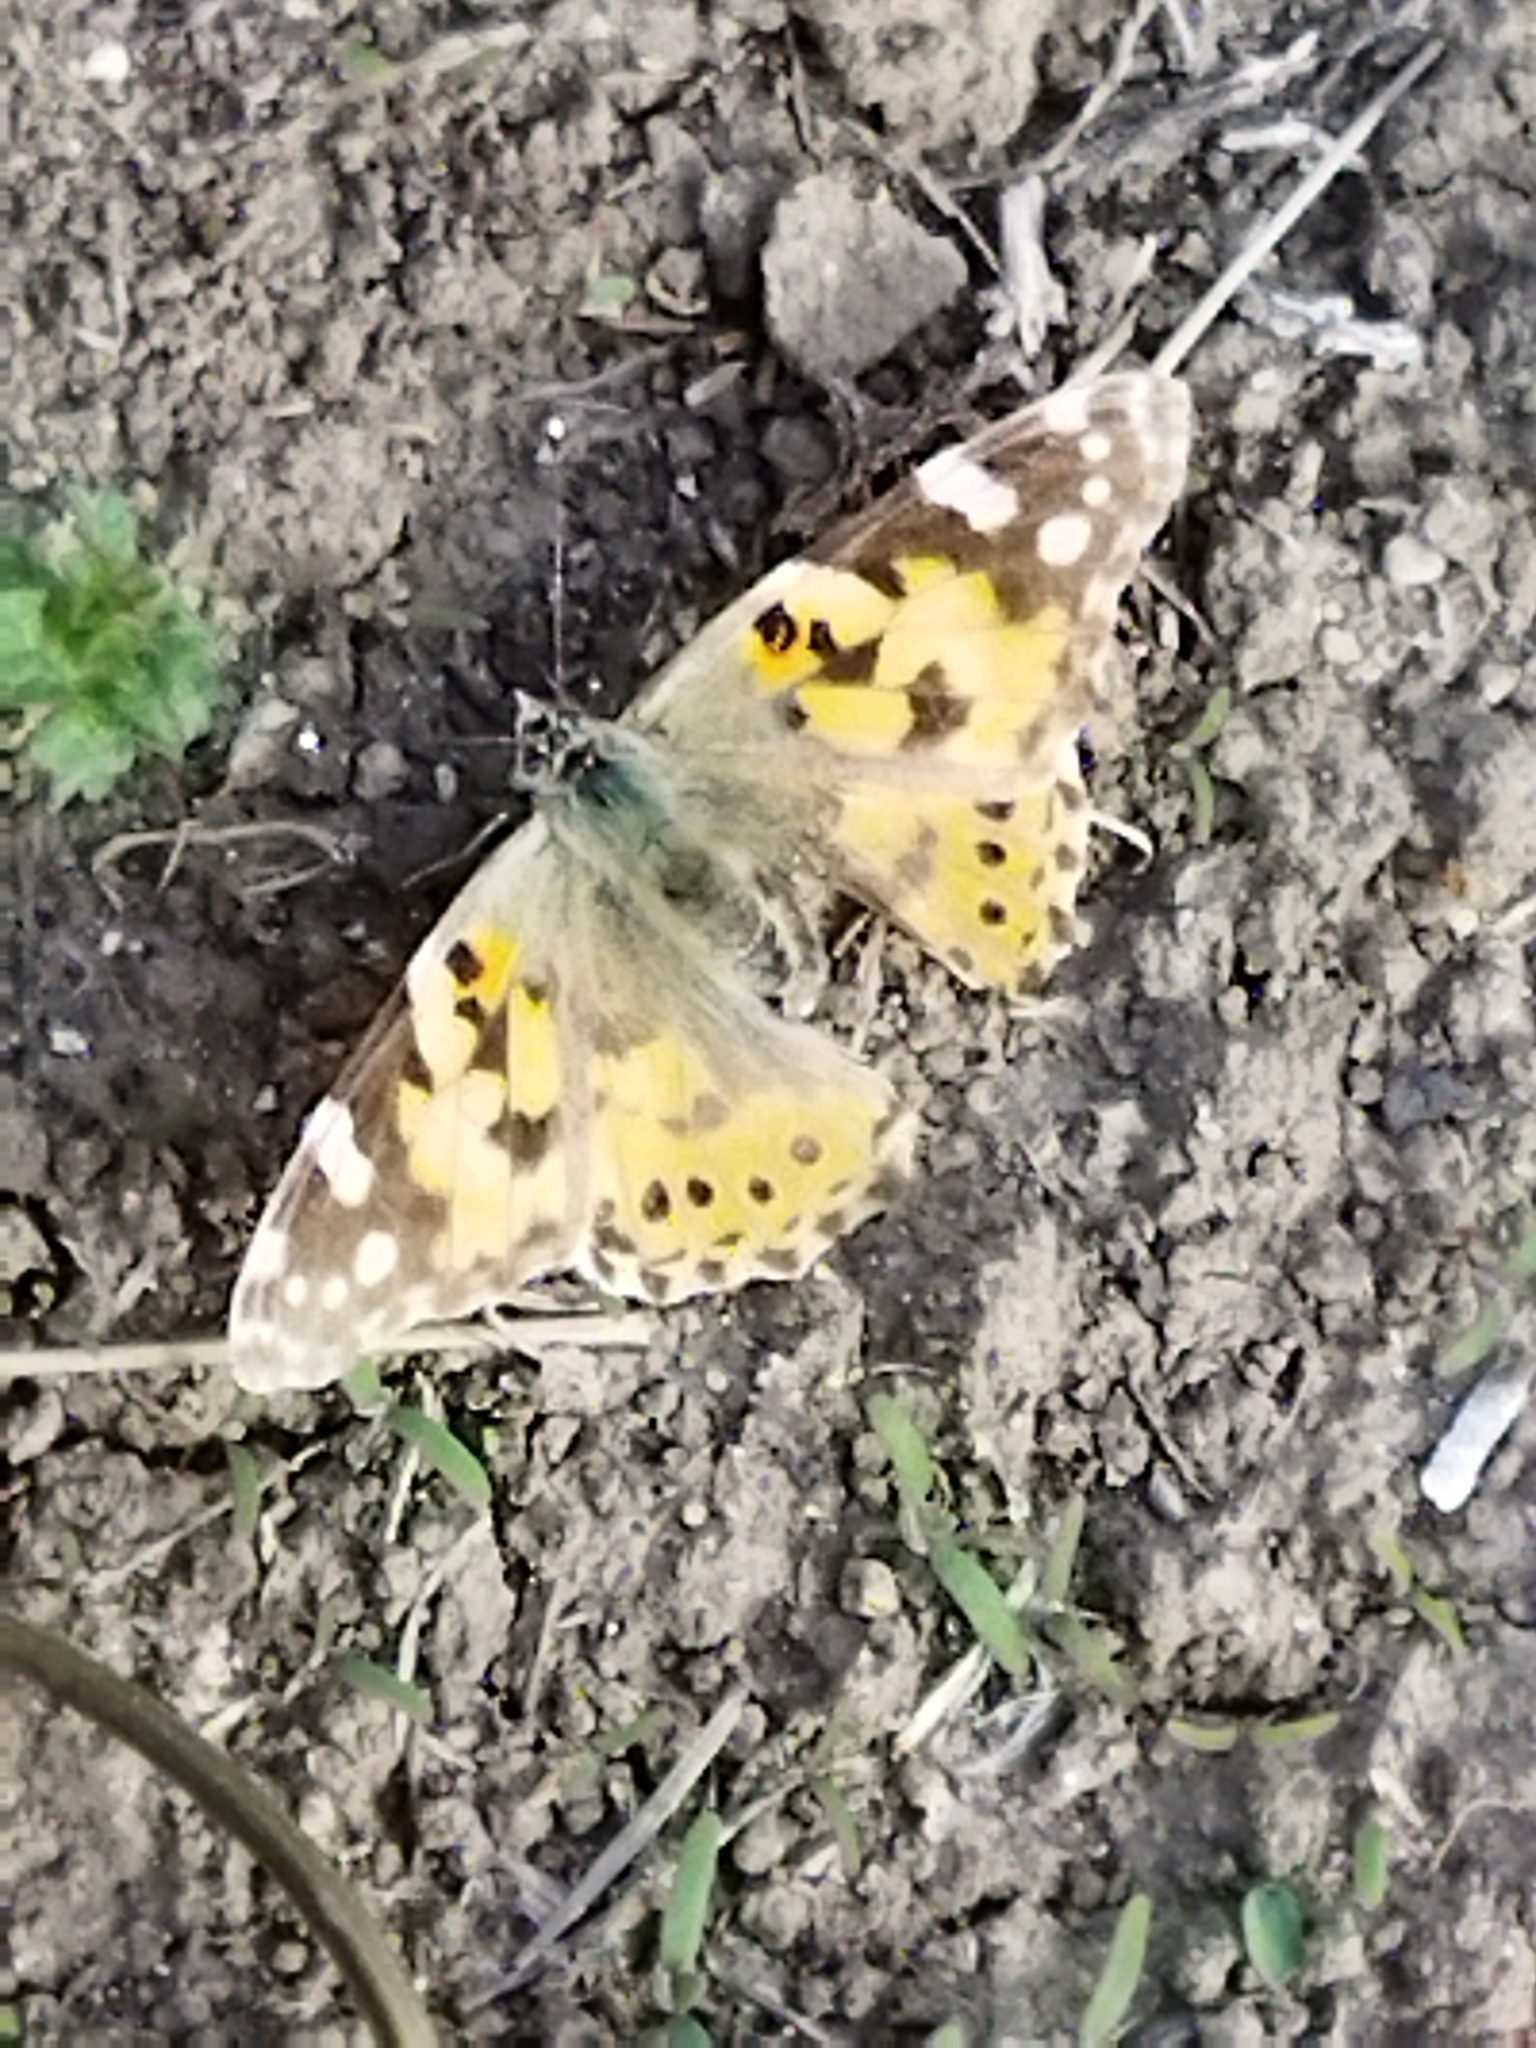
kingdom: Animalia
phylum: Arthropoda
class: Insecta
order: Lepidoptera
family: Nymphalidae
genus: Vanessa
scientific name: Vanessa cardui
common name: Painted lady
